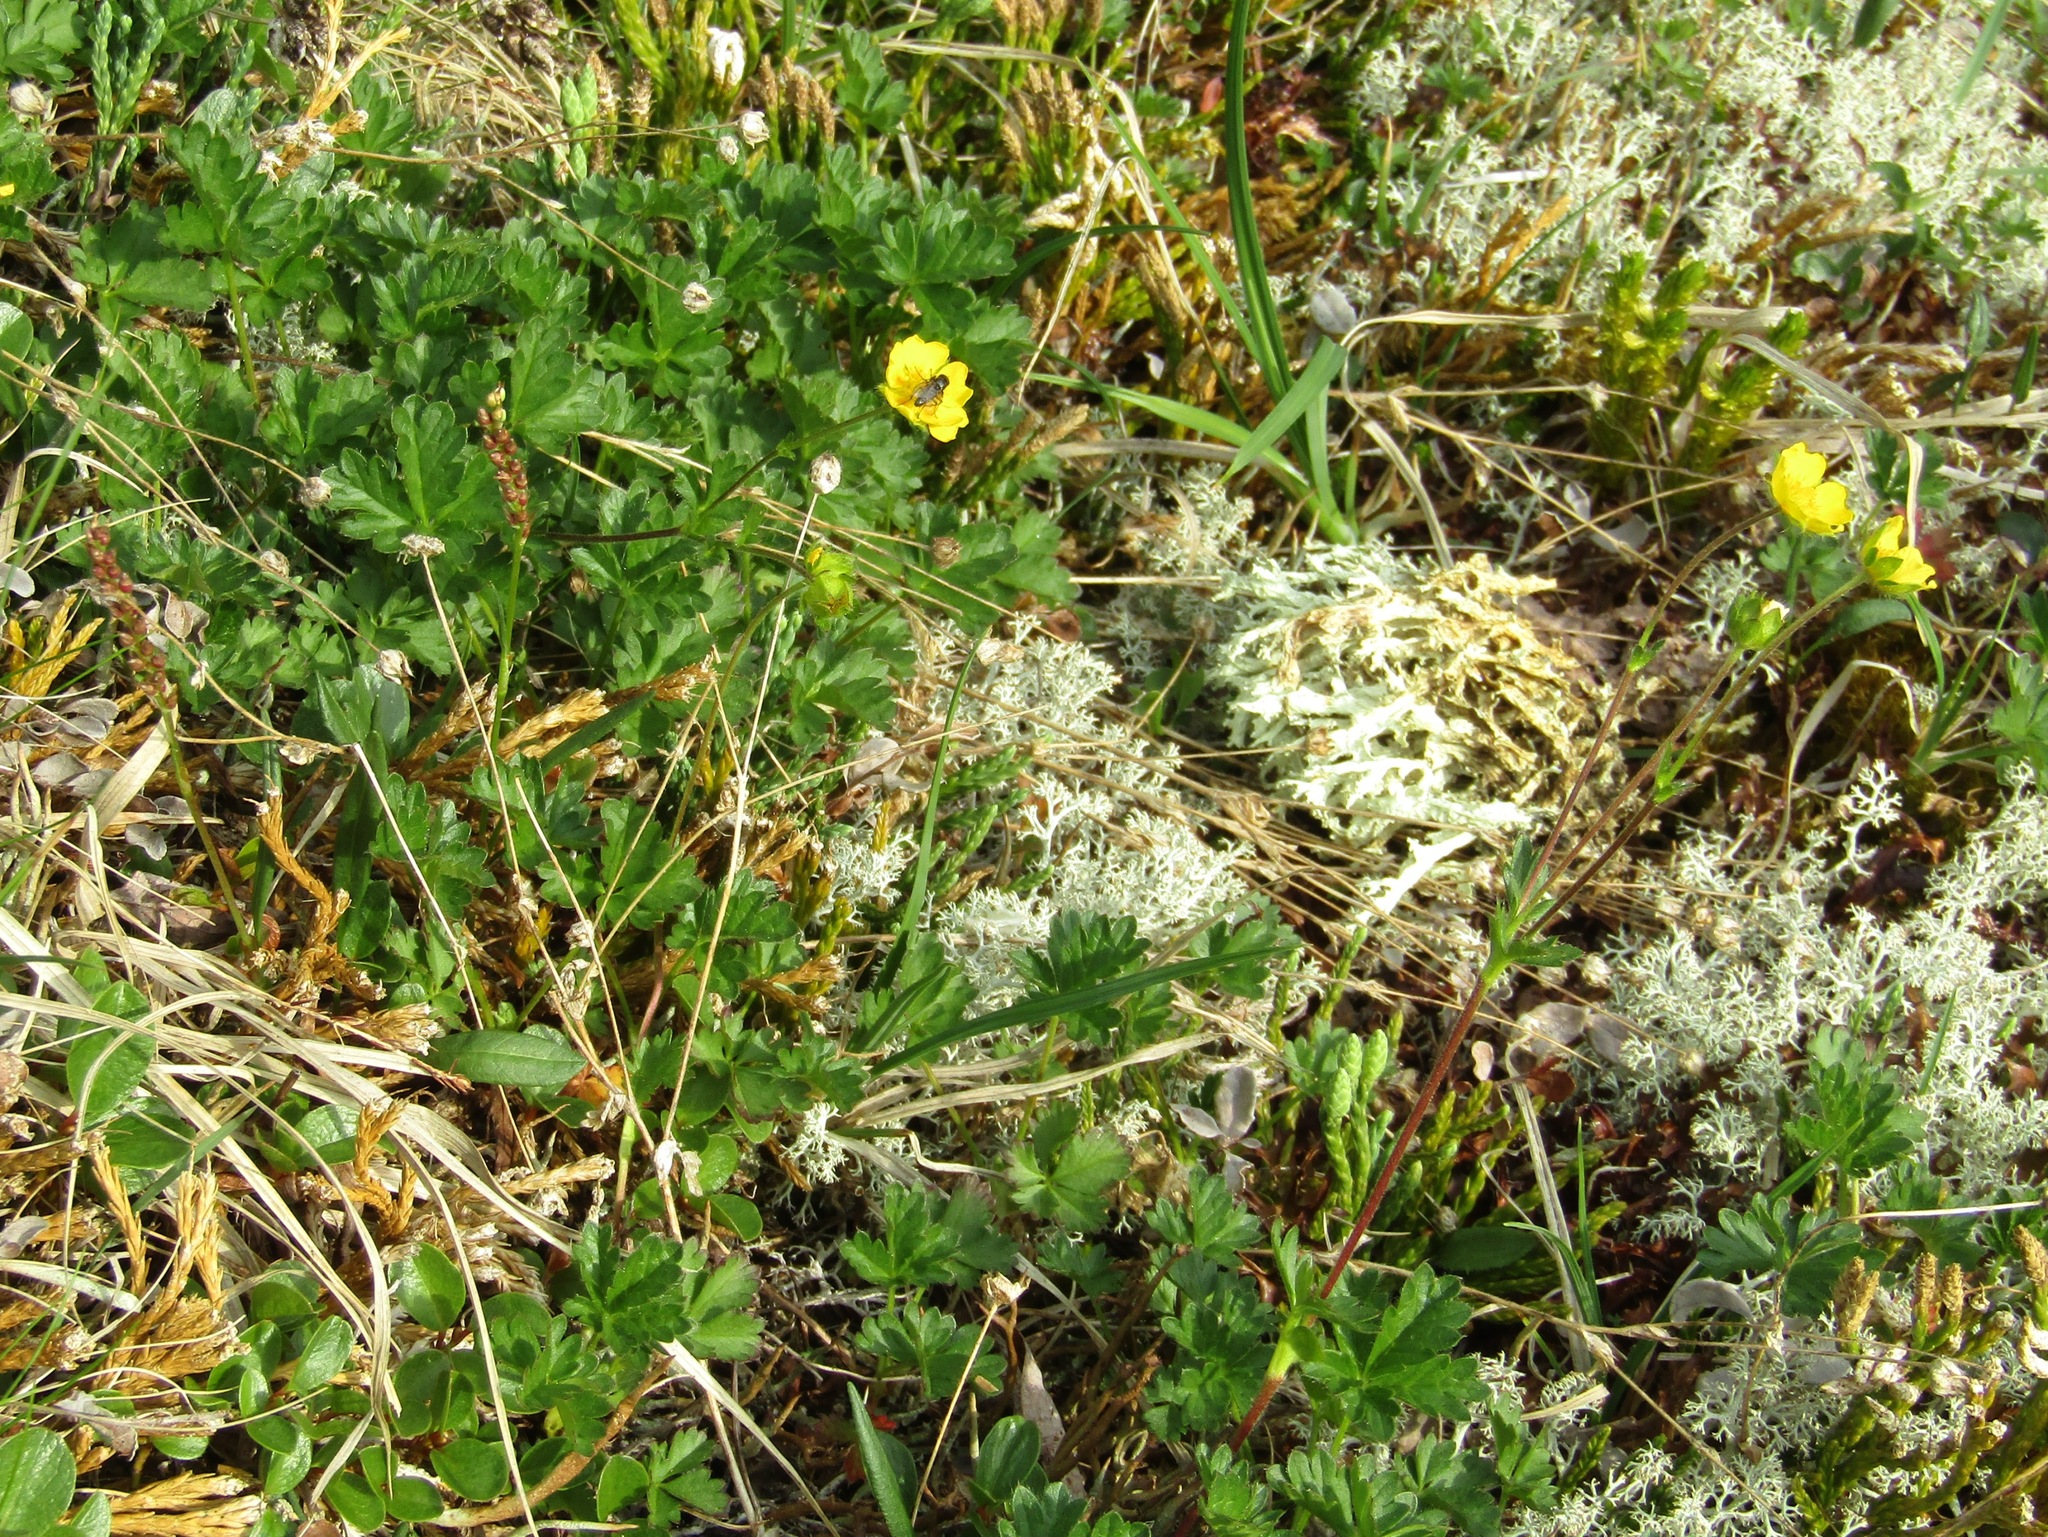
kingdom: Plantae
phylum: Tracheophyta
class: Magnoliopsida
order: Rosales
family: Rosaceae
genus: Potentilla
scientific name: Potentilla crantzii
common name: Alpine cinquefoil
